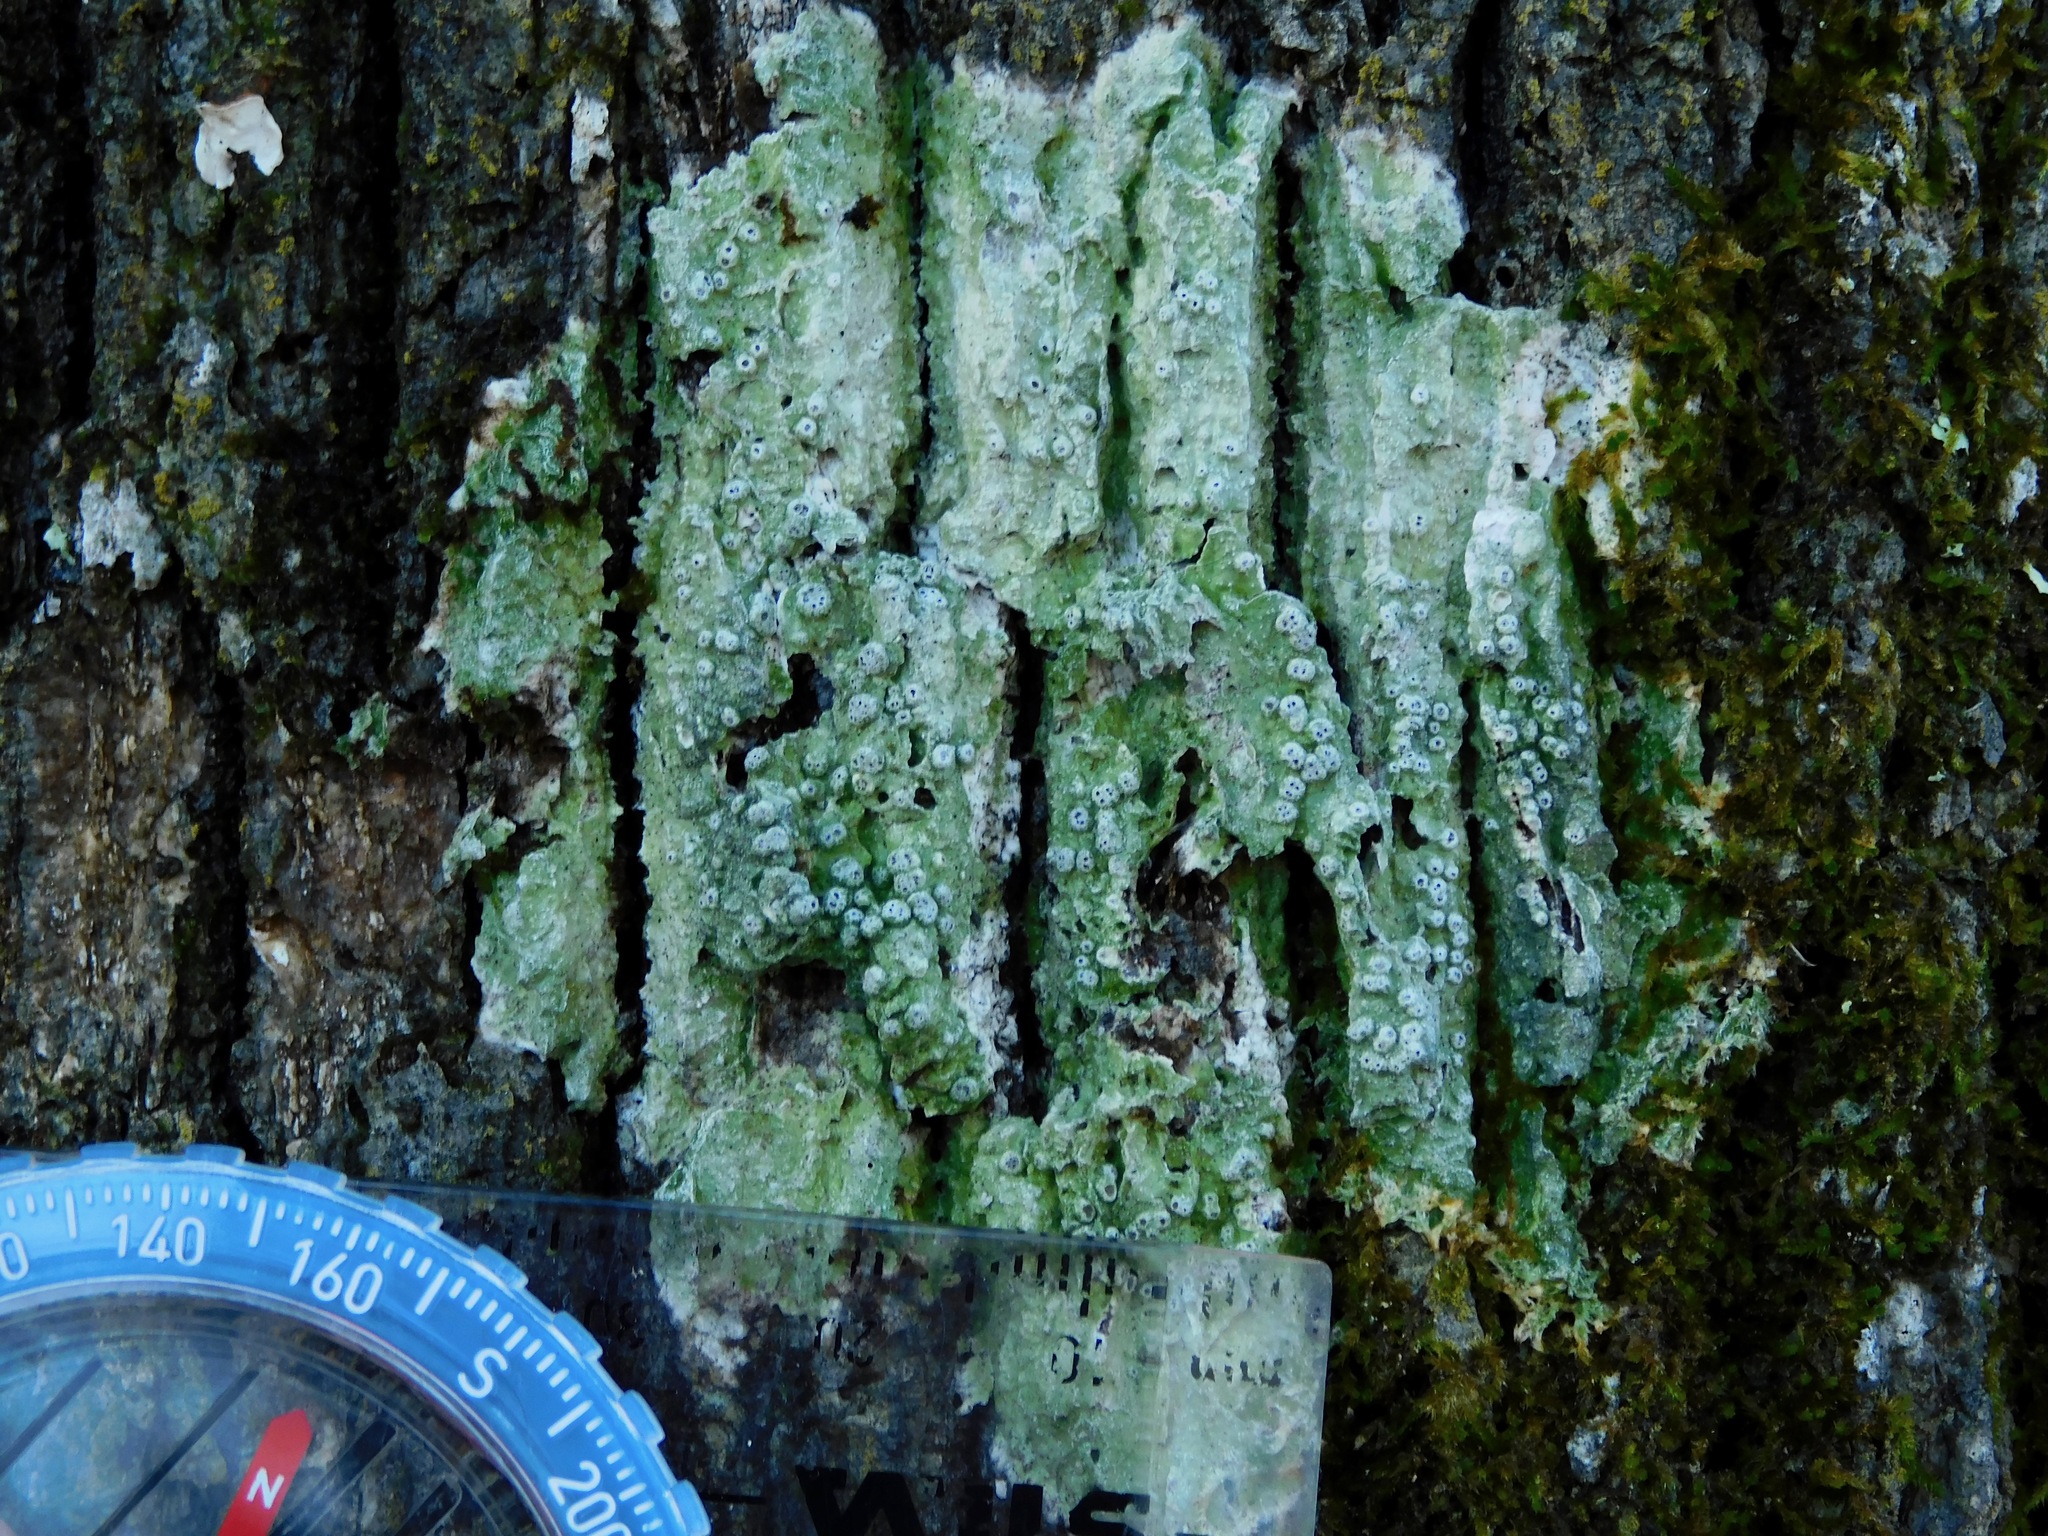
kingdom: Fungi
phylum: Ascomycota
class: Lecanoromycetes
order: Pertusariales
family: Pertusariaceae
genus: Pertusaria
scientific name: Pertusaria consocians
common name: Consociate wart lichen
